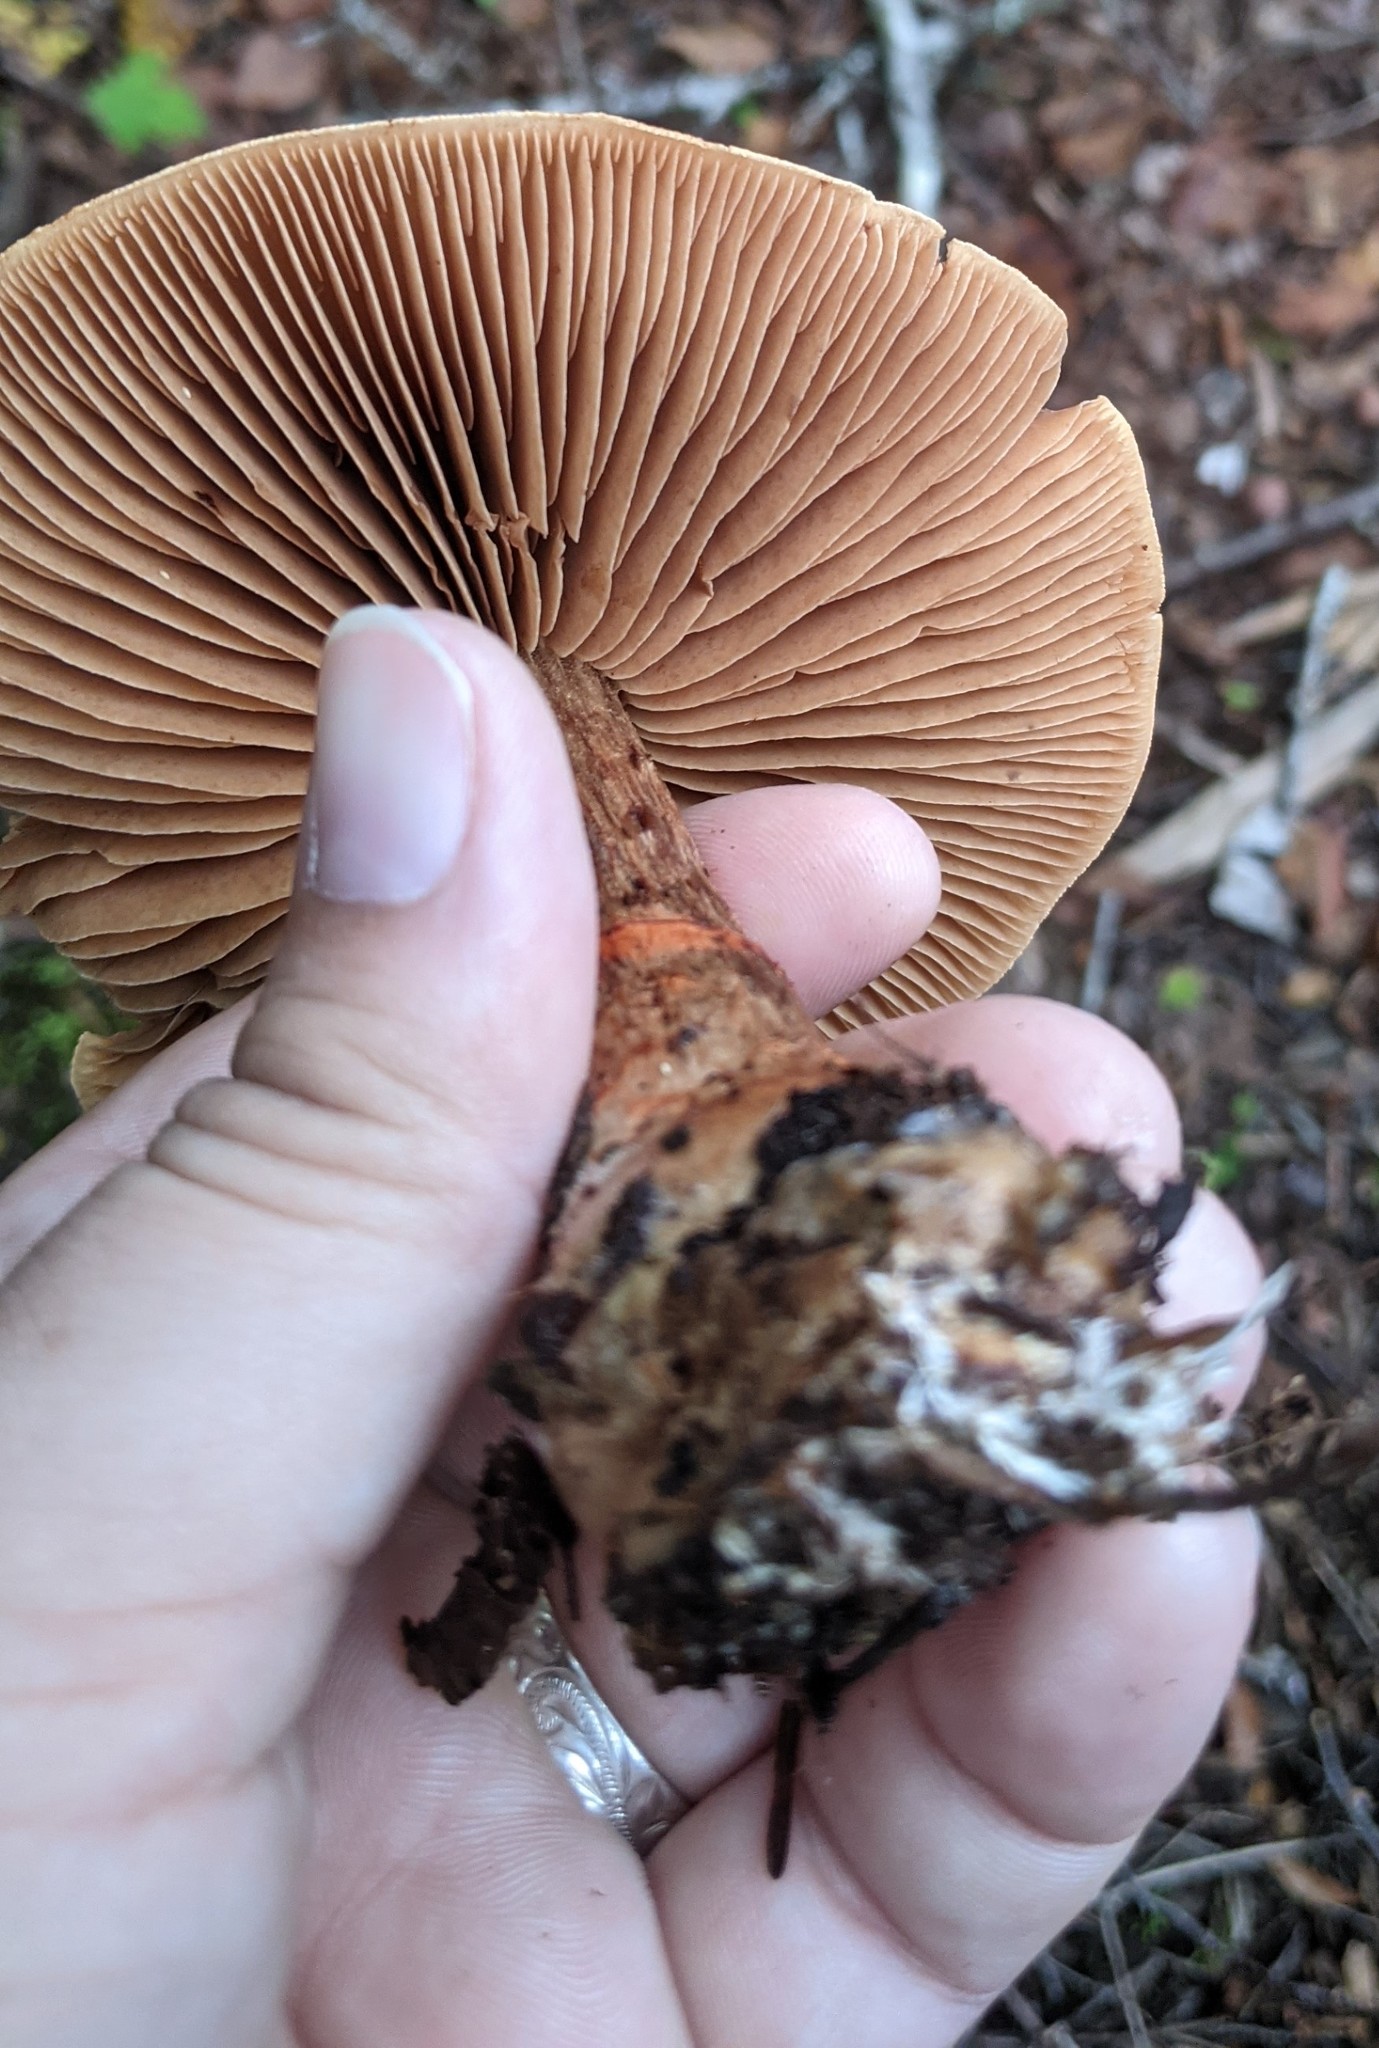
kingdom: Fungi
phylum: Basidiomycota
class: Agaricomycetes
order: Agaricales
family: Cortinariaceae
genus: Cortinarius
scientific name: Cortinarius armillatus
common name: Red banded webcap
